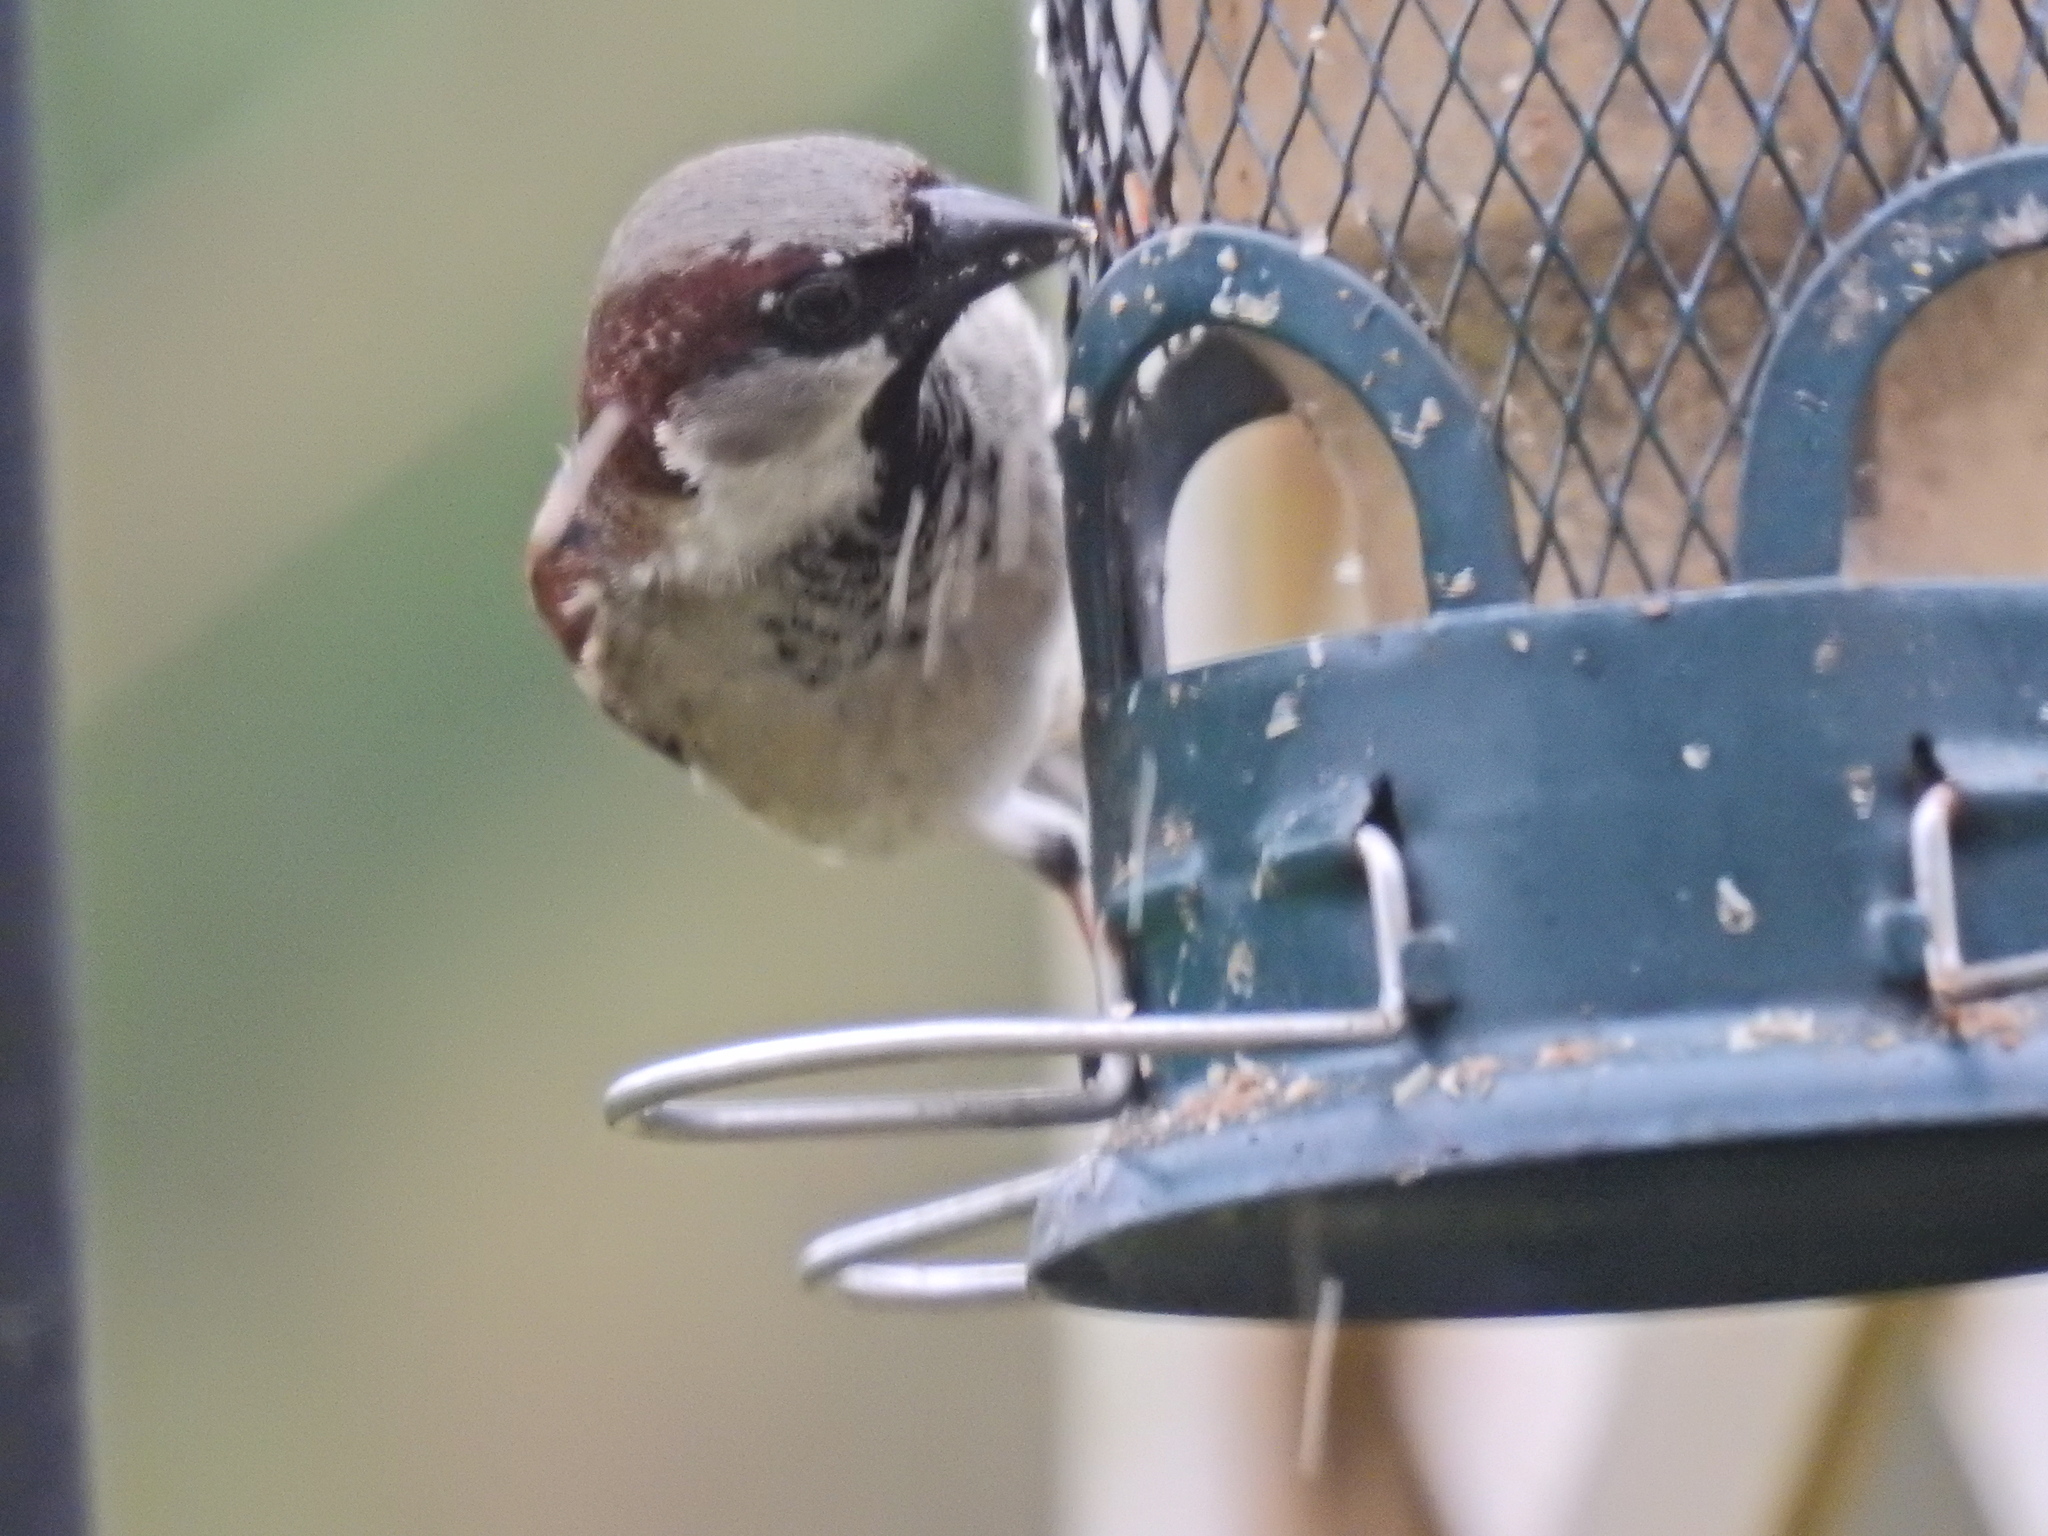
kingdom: Animalia
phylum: Chordata
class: Aves
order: Passeriformes
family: Passeridae
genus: Passer
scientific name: Passer domesticus
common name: House sparrow
